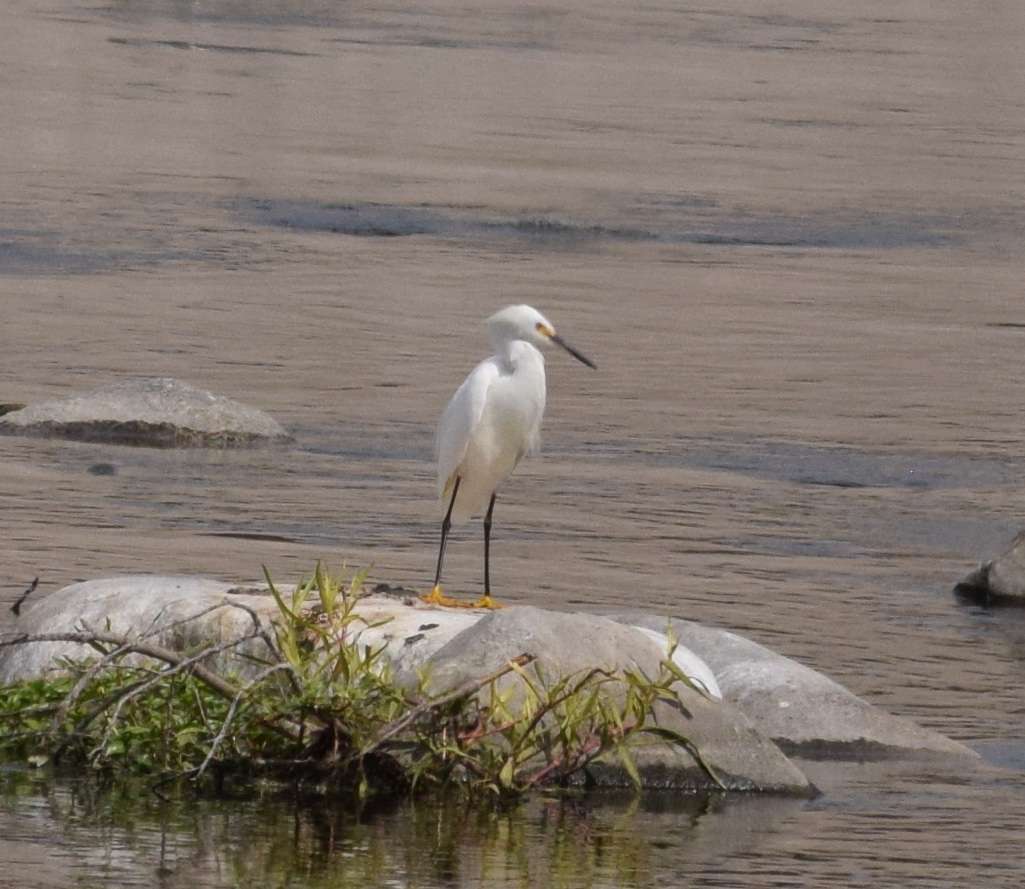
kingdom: Animalia
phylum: Chordata
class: Aves
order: Pelecaniformes
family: Ardeidae
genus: Egretta
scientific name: Egretta thula
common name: Snowy egret
